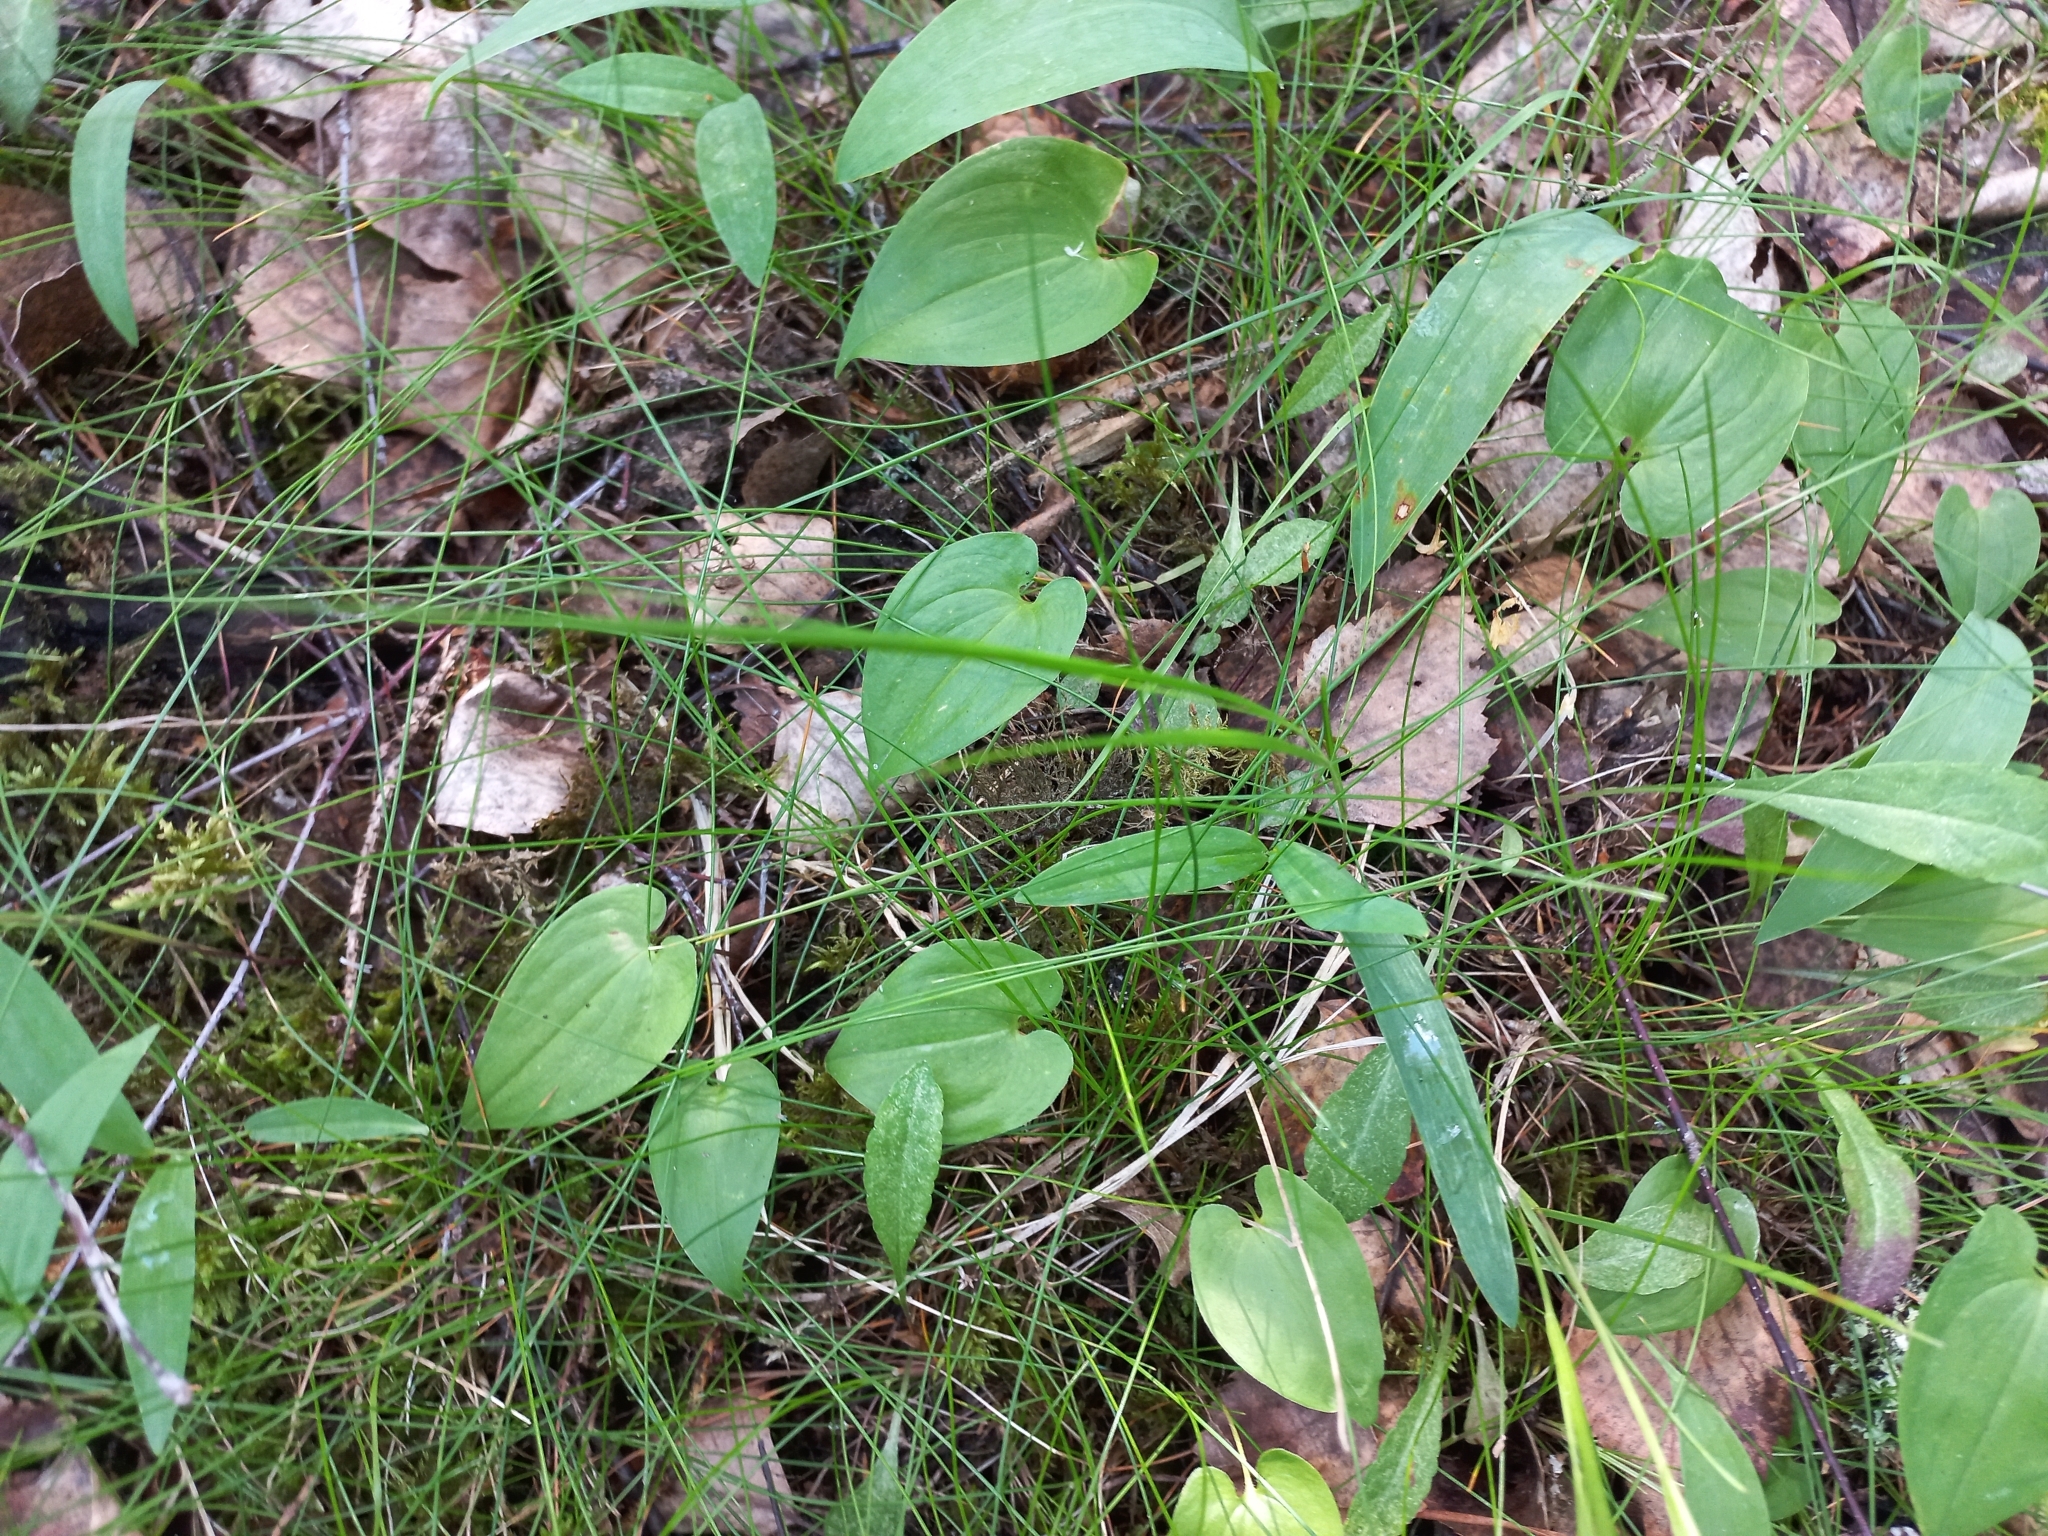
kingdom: Plantae
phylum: Tracheophyta
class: Liliopsida
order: Asparagales
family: Asparagaceae
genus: Maianthemum
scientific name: Maianthemum bifolium
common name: May lily
